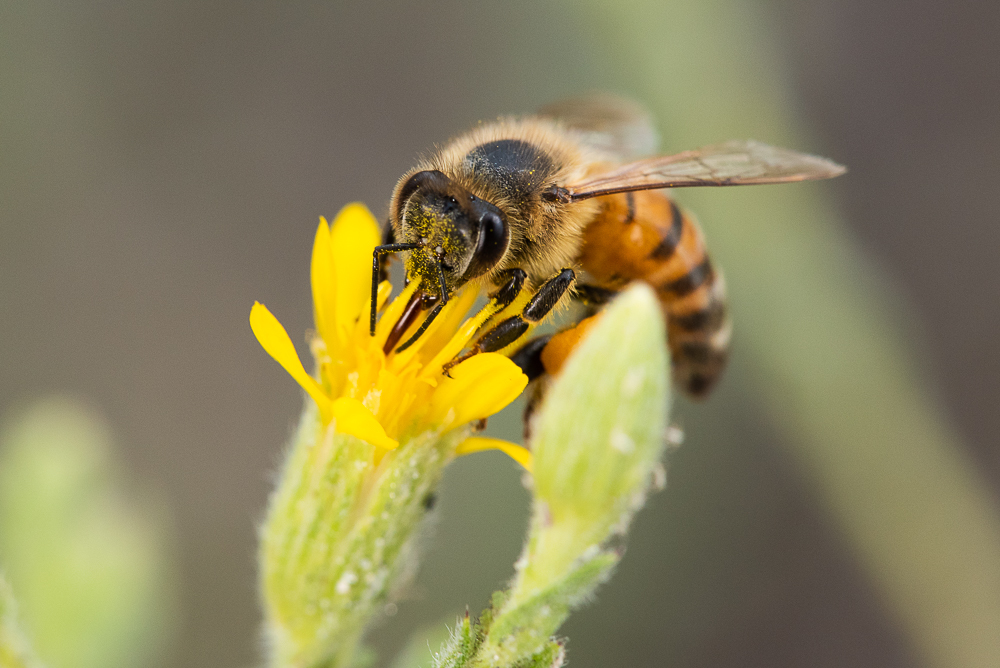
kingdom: Animalia
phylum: Arthropoda
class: Insecta
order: Hymenoptera
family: Apidae
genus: Apis
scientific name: Apis mellifera
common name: Honey bee
